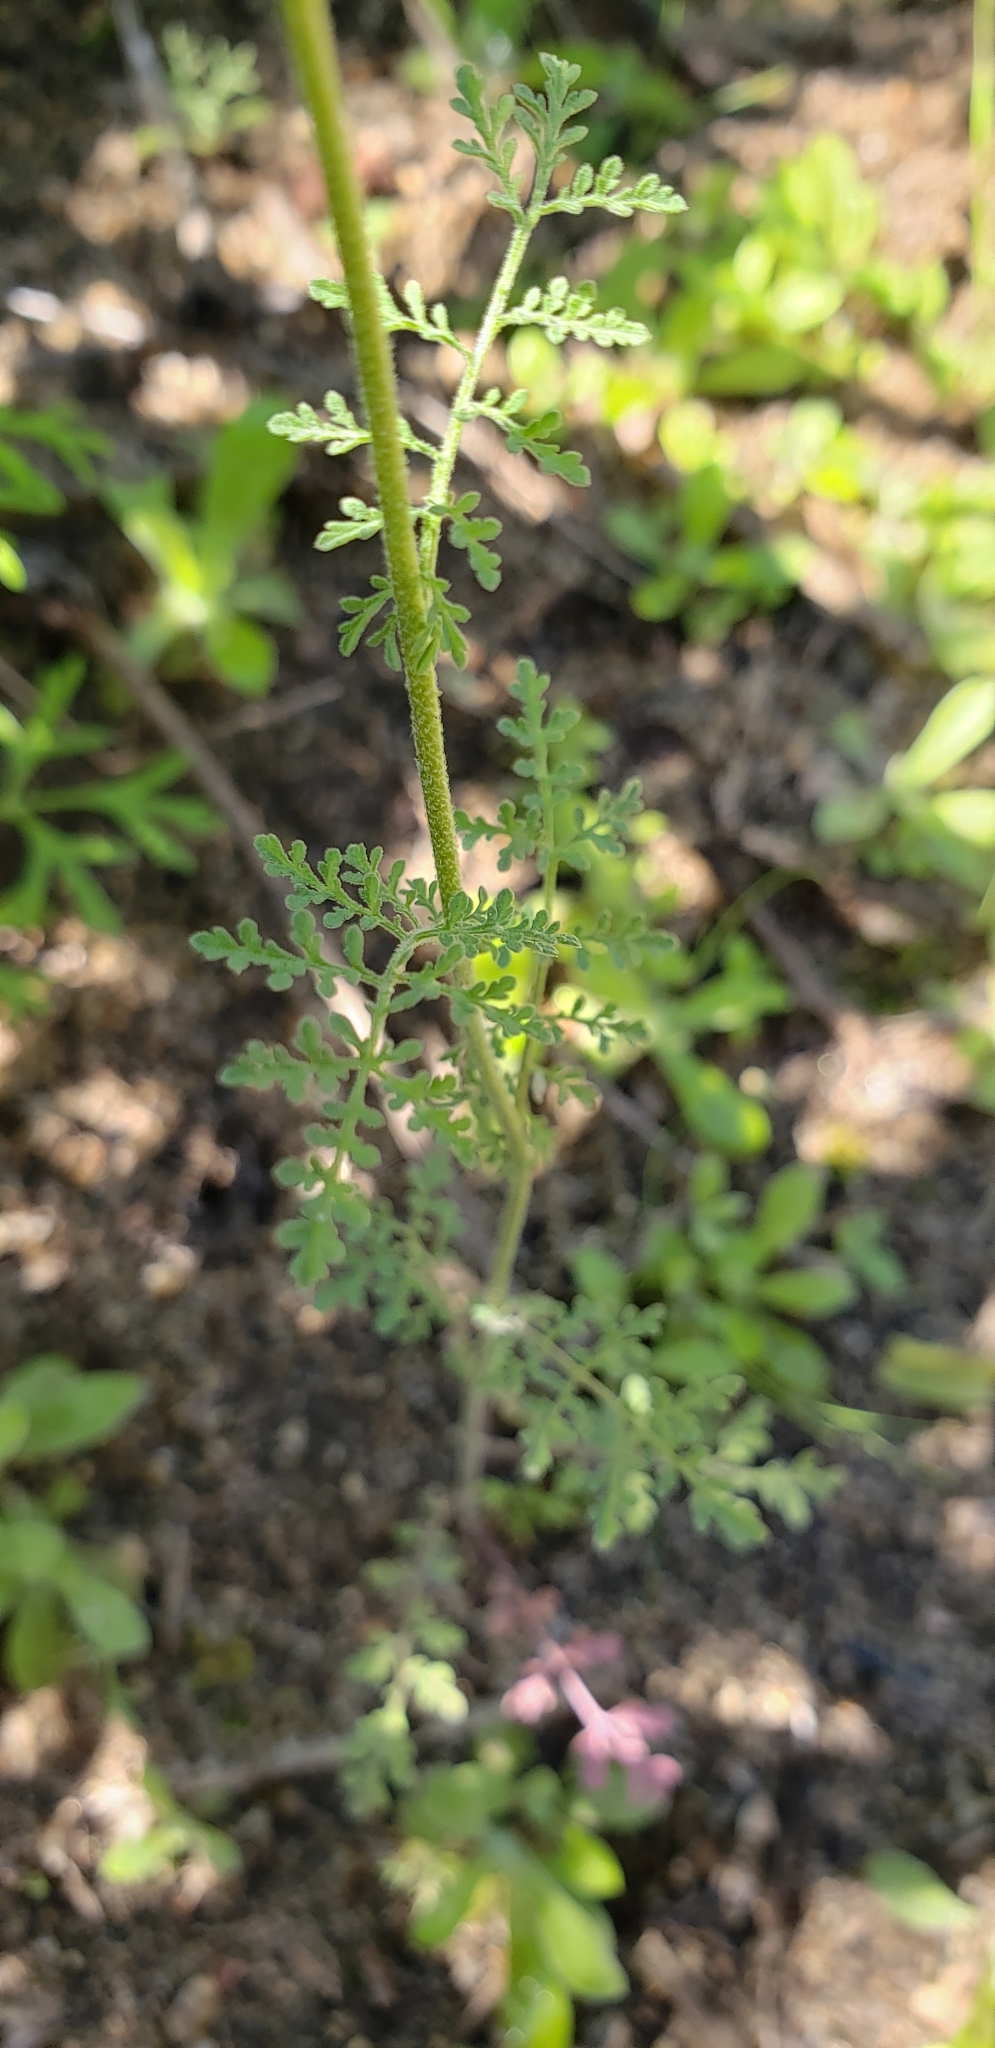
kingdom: Plantae
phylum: Tracheophyta
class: Magnoliopsida
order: Brassicales
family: Brassicaceae
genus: Descurainia
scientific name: Descurainia pinnata
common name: Western tansy mustard
